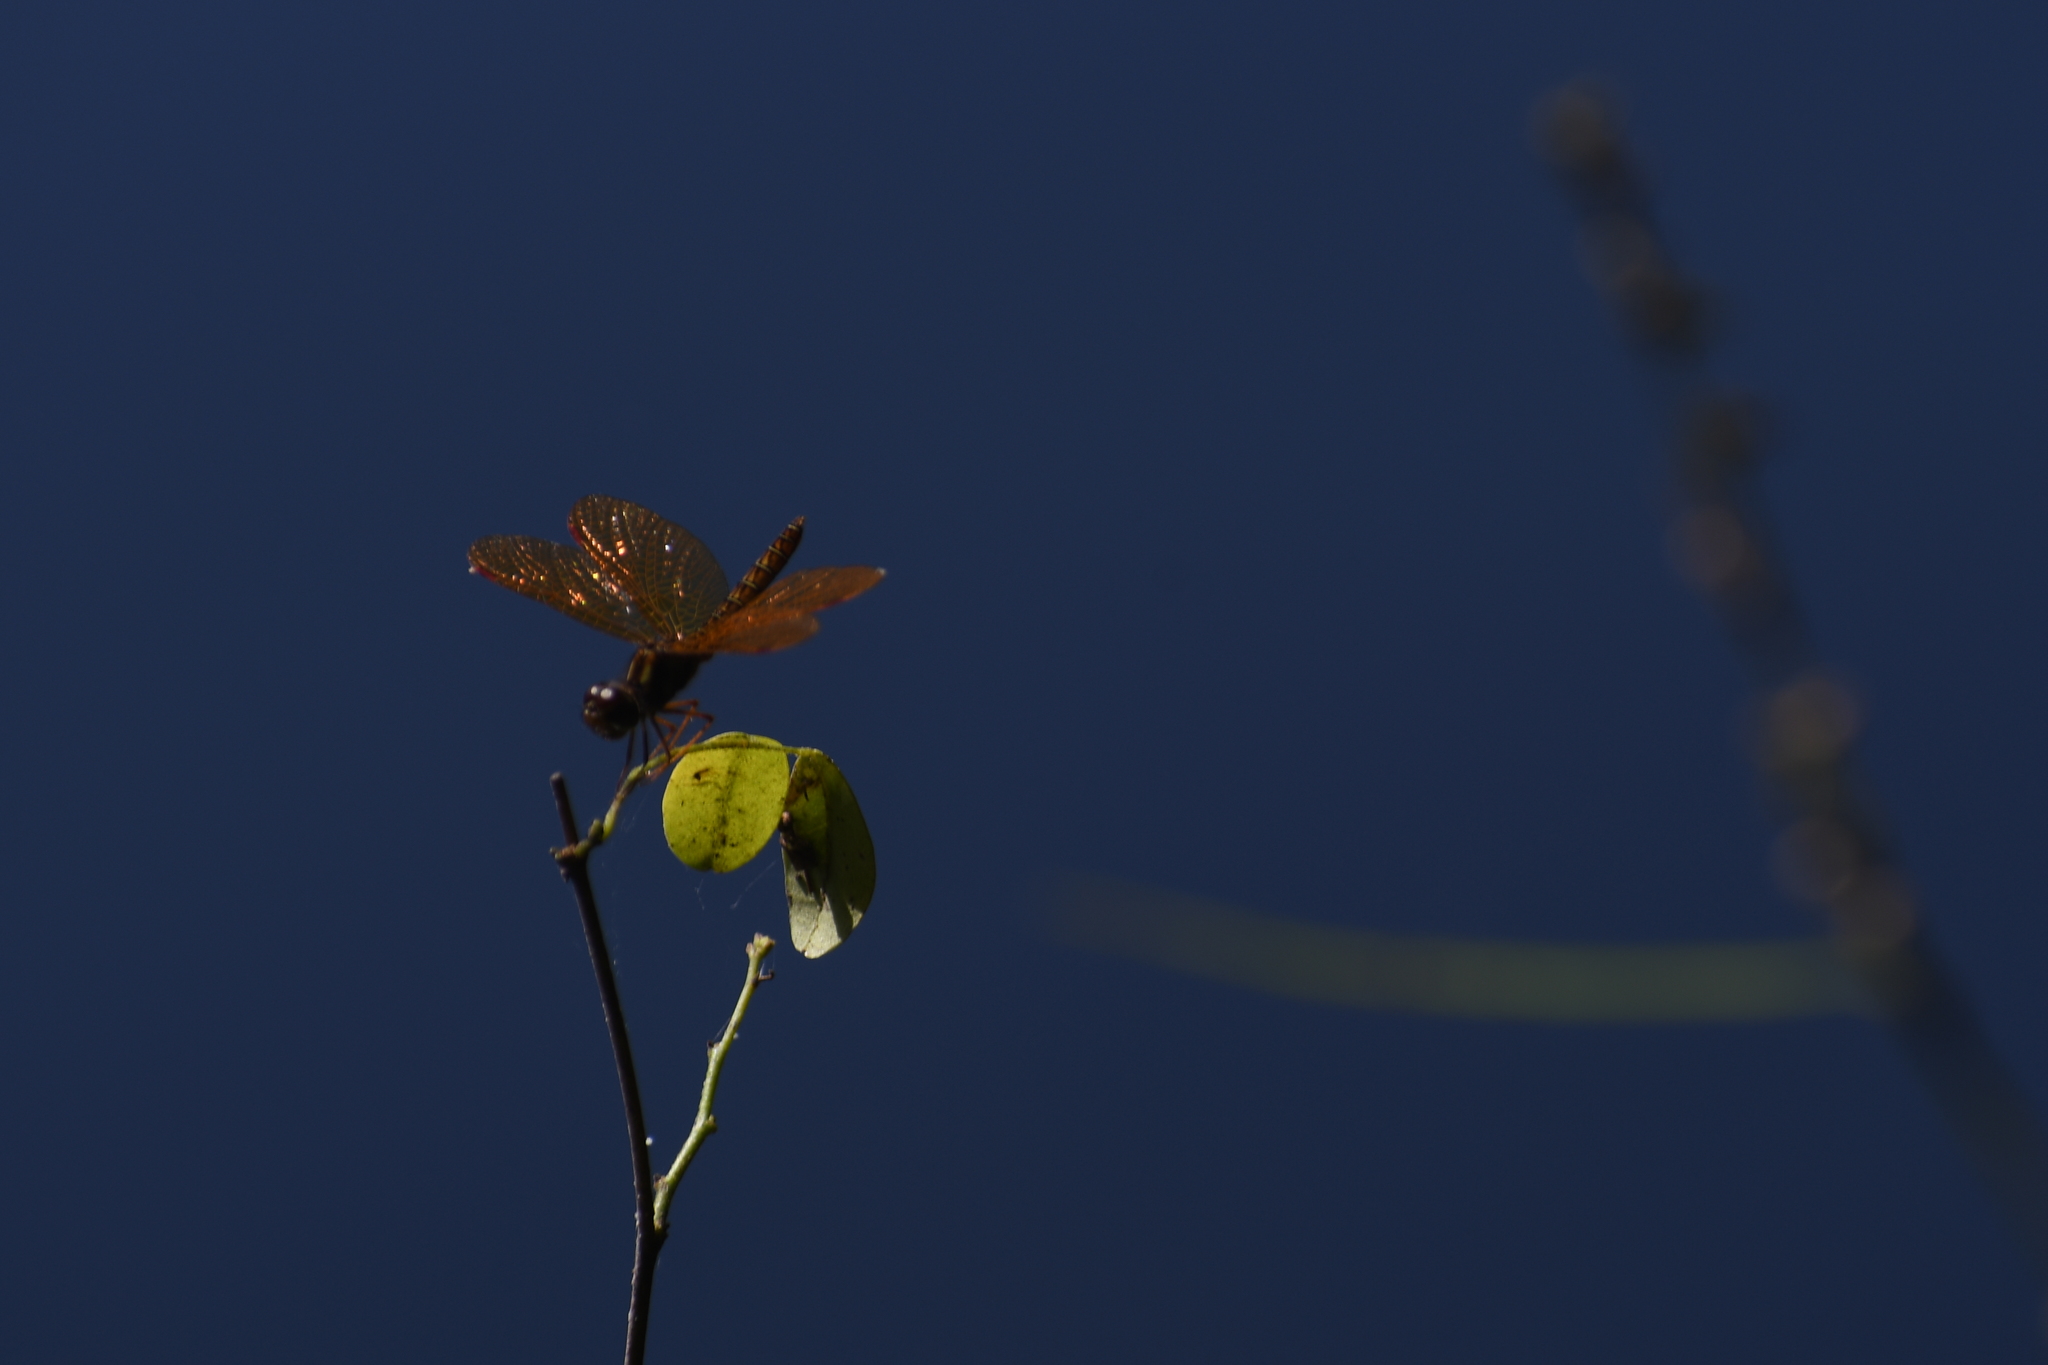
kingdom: Animalia
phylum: Arthropoda
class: Insecta
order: Odonata
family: Libellulidae
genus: Perithemis
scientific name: Perithemis tenera
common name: Eastern amberwing
